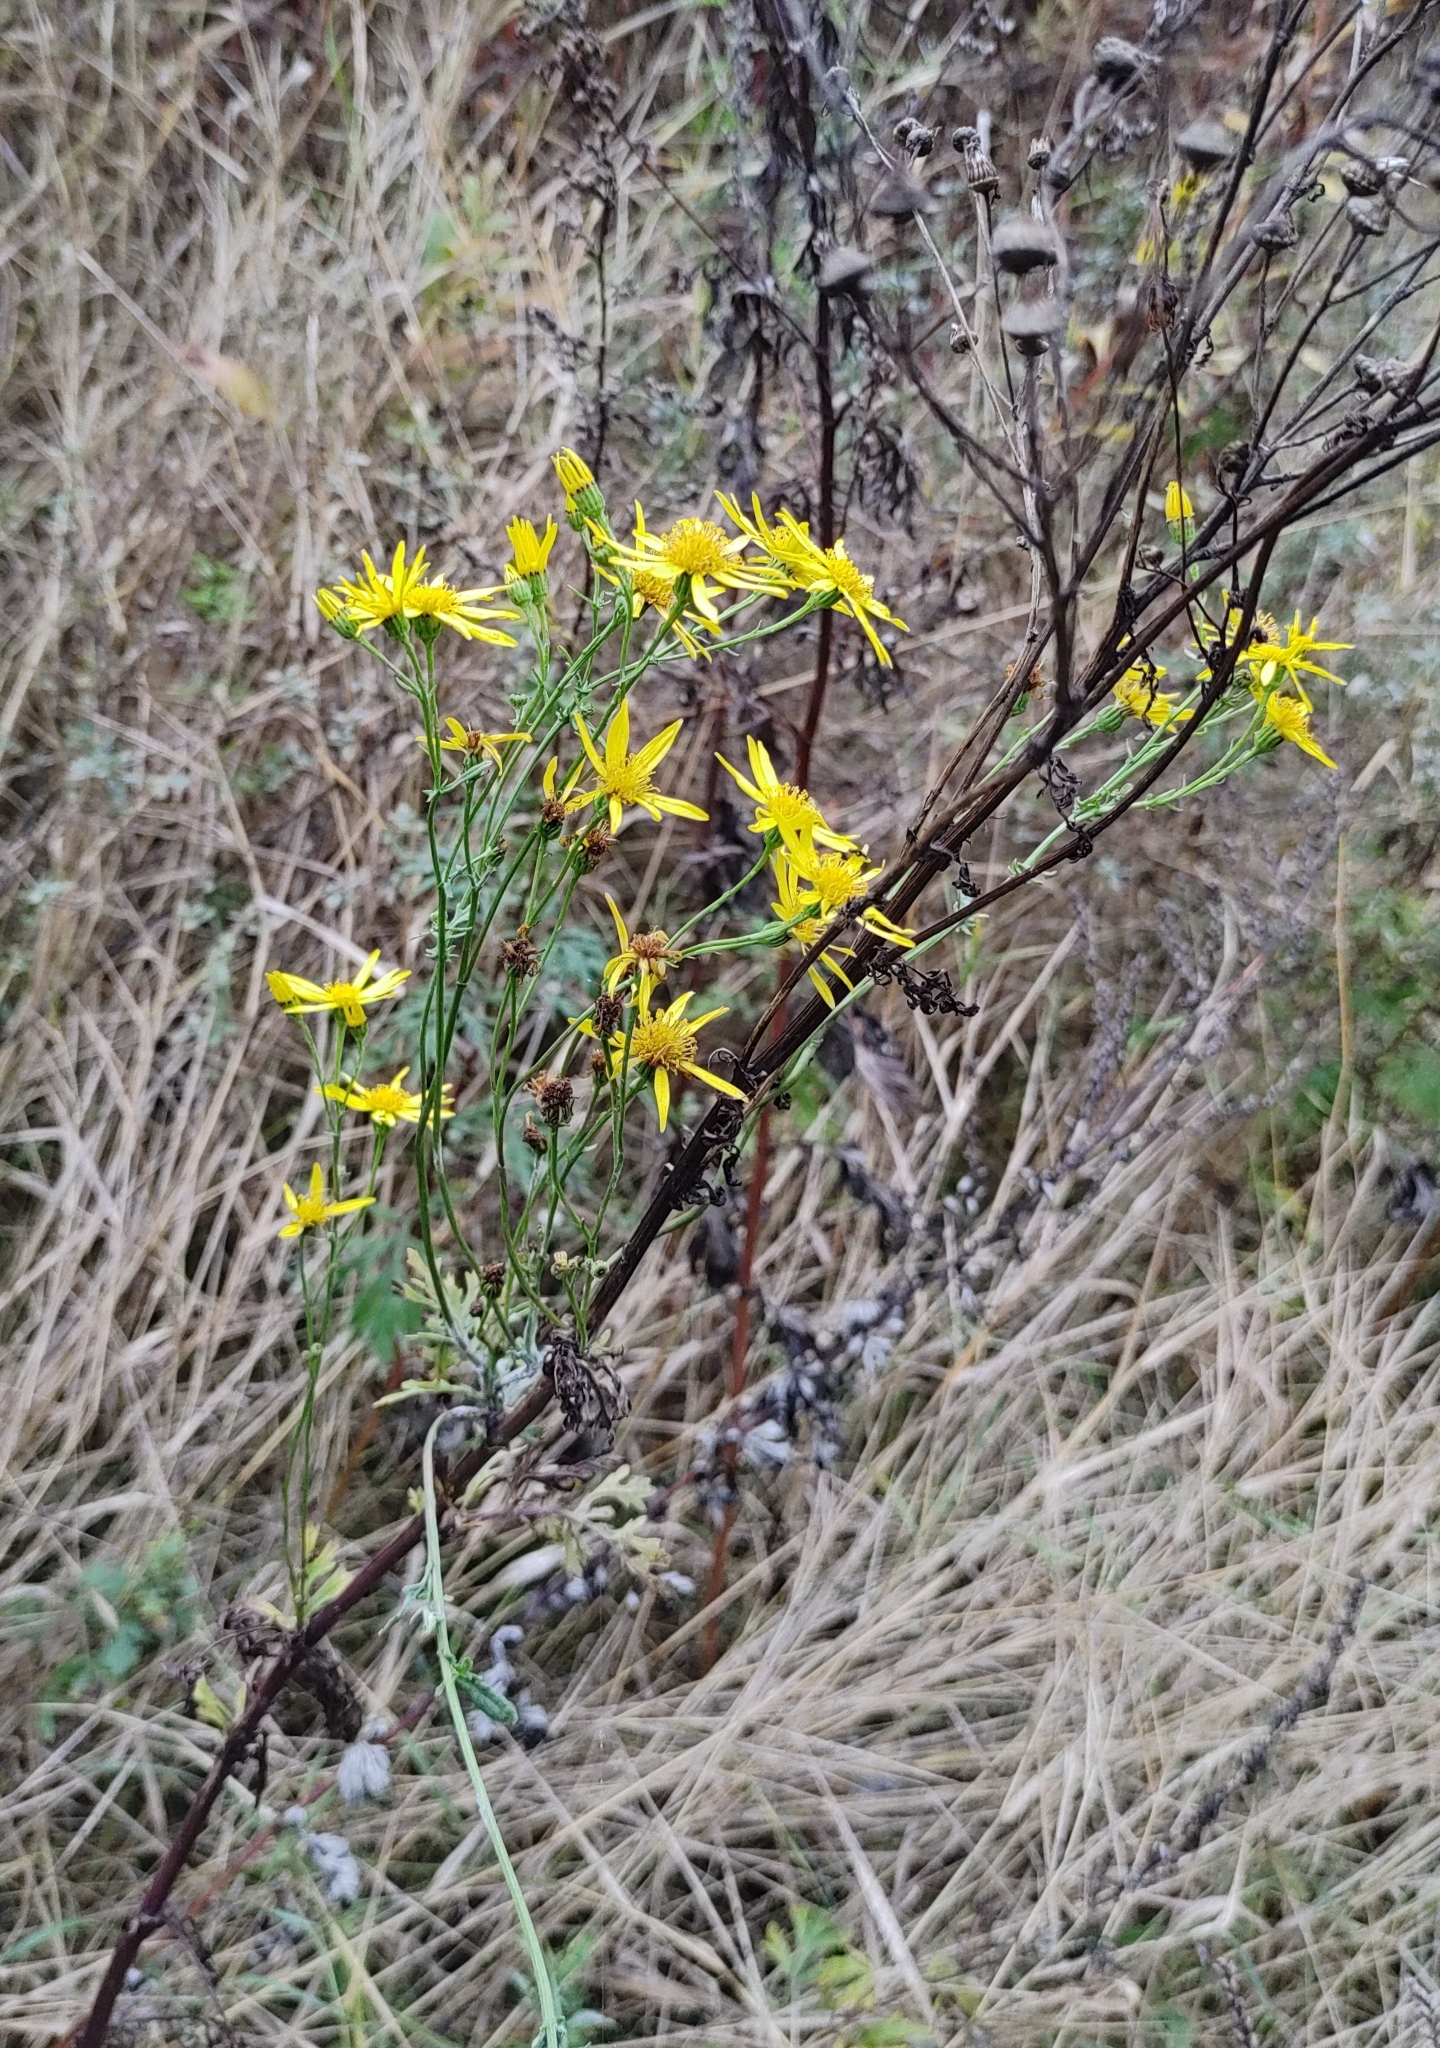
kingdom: Plantae
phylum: Tracheophyta
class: Magnoliopsida
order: Asterales
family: Asteraceae
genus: Jacobaea
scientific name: Jacobaea vulgaris
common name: Stinking willie
